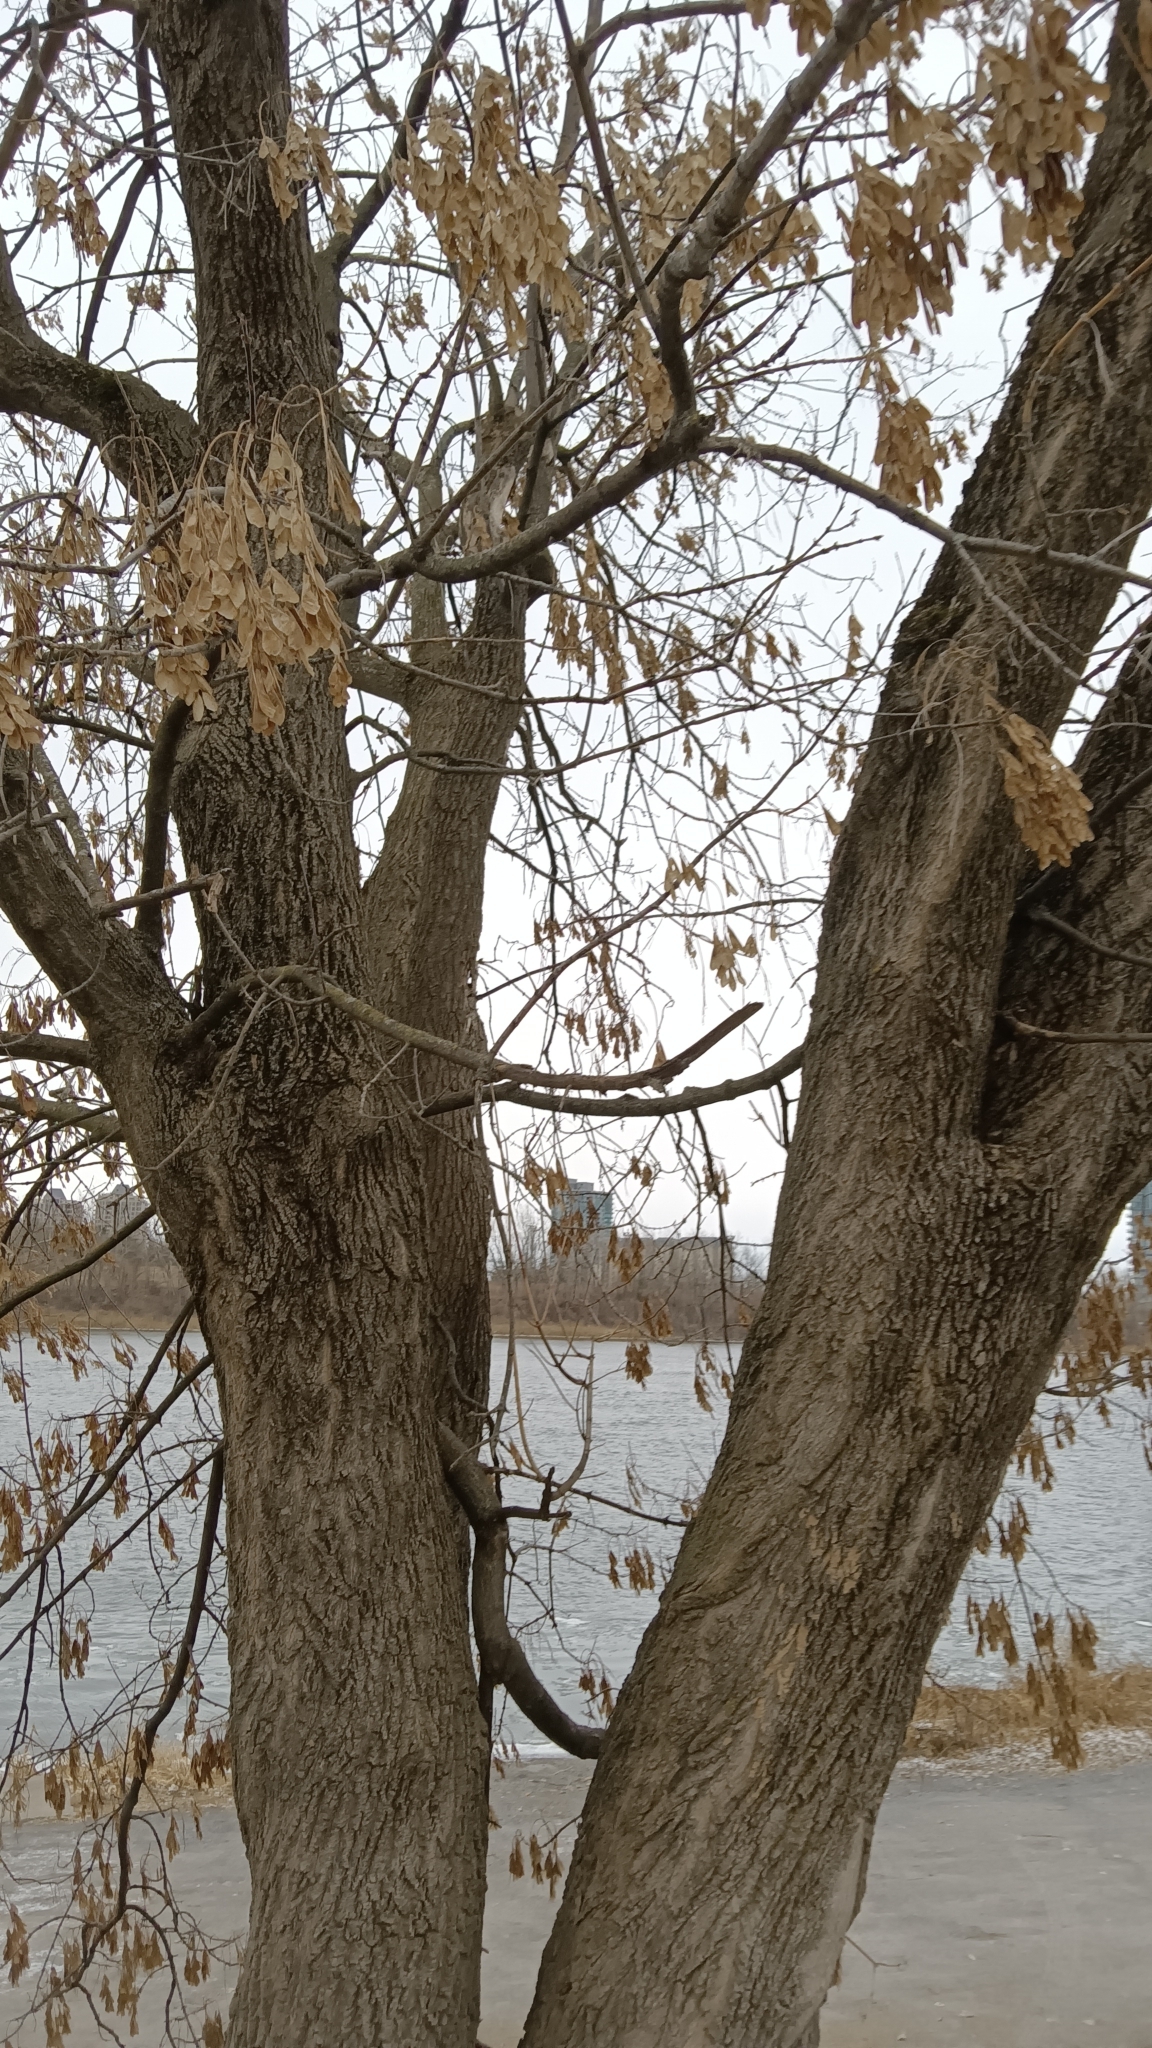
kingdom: Plantae
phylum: Tracheophyta
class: Magnoliopsida
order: Sapindales
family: Sapindaceae
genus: Acer
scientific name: Acer negundo
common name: Ashleaf maple
